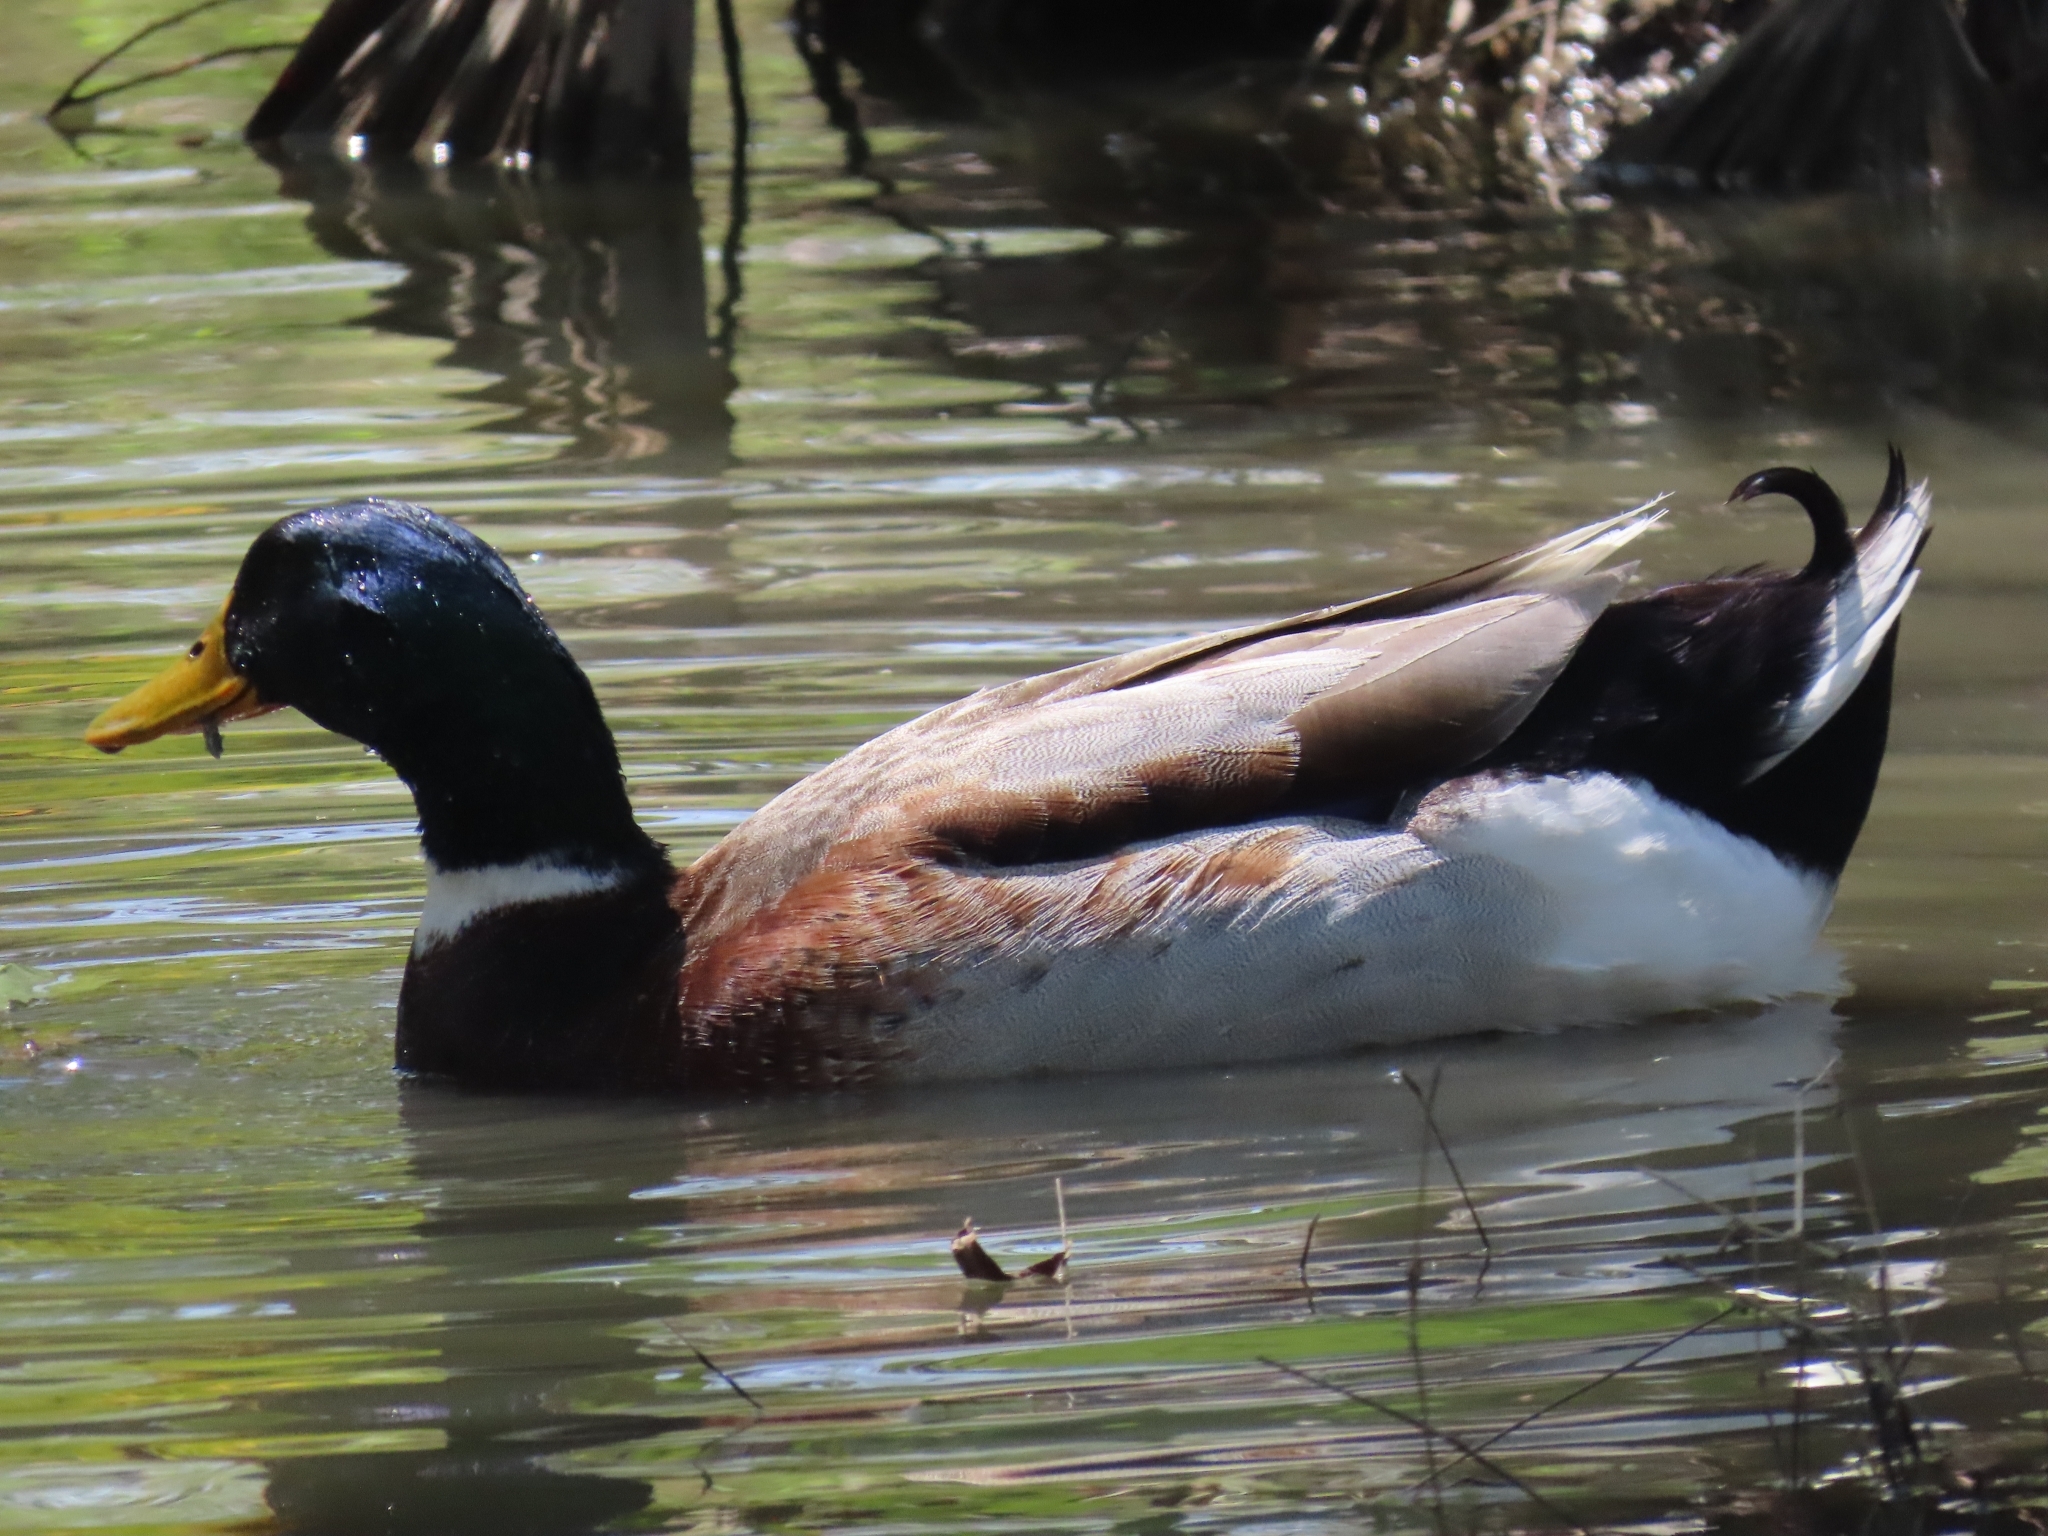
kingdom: Animalia
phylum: Chordata
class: Aves
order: Anseriformes
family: Anatidae
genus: Anas
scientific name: Anas platyrhynchos
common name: Mallard
